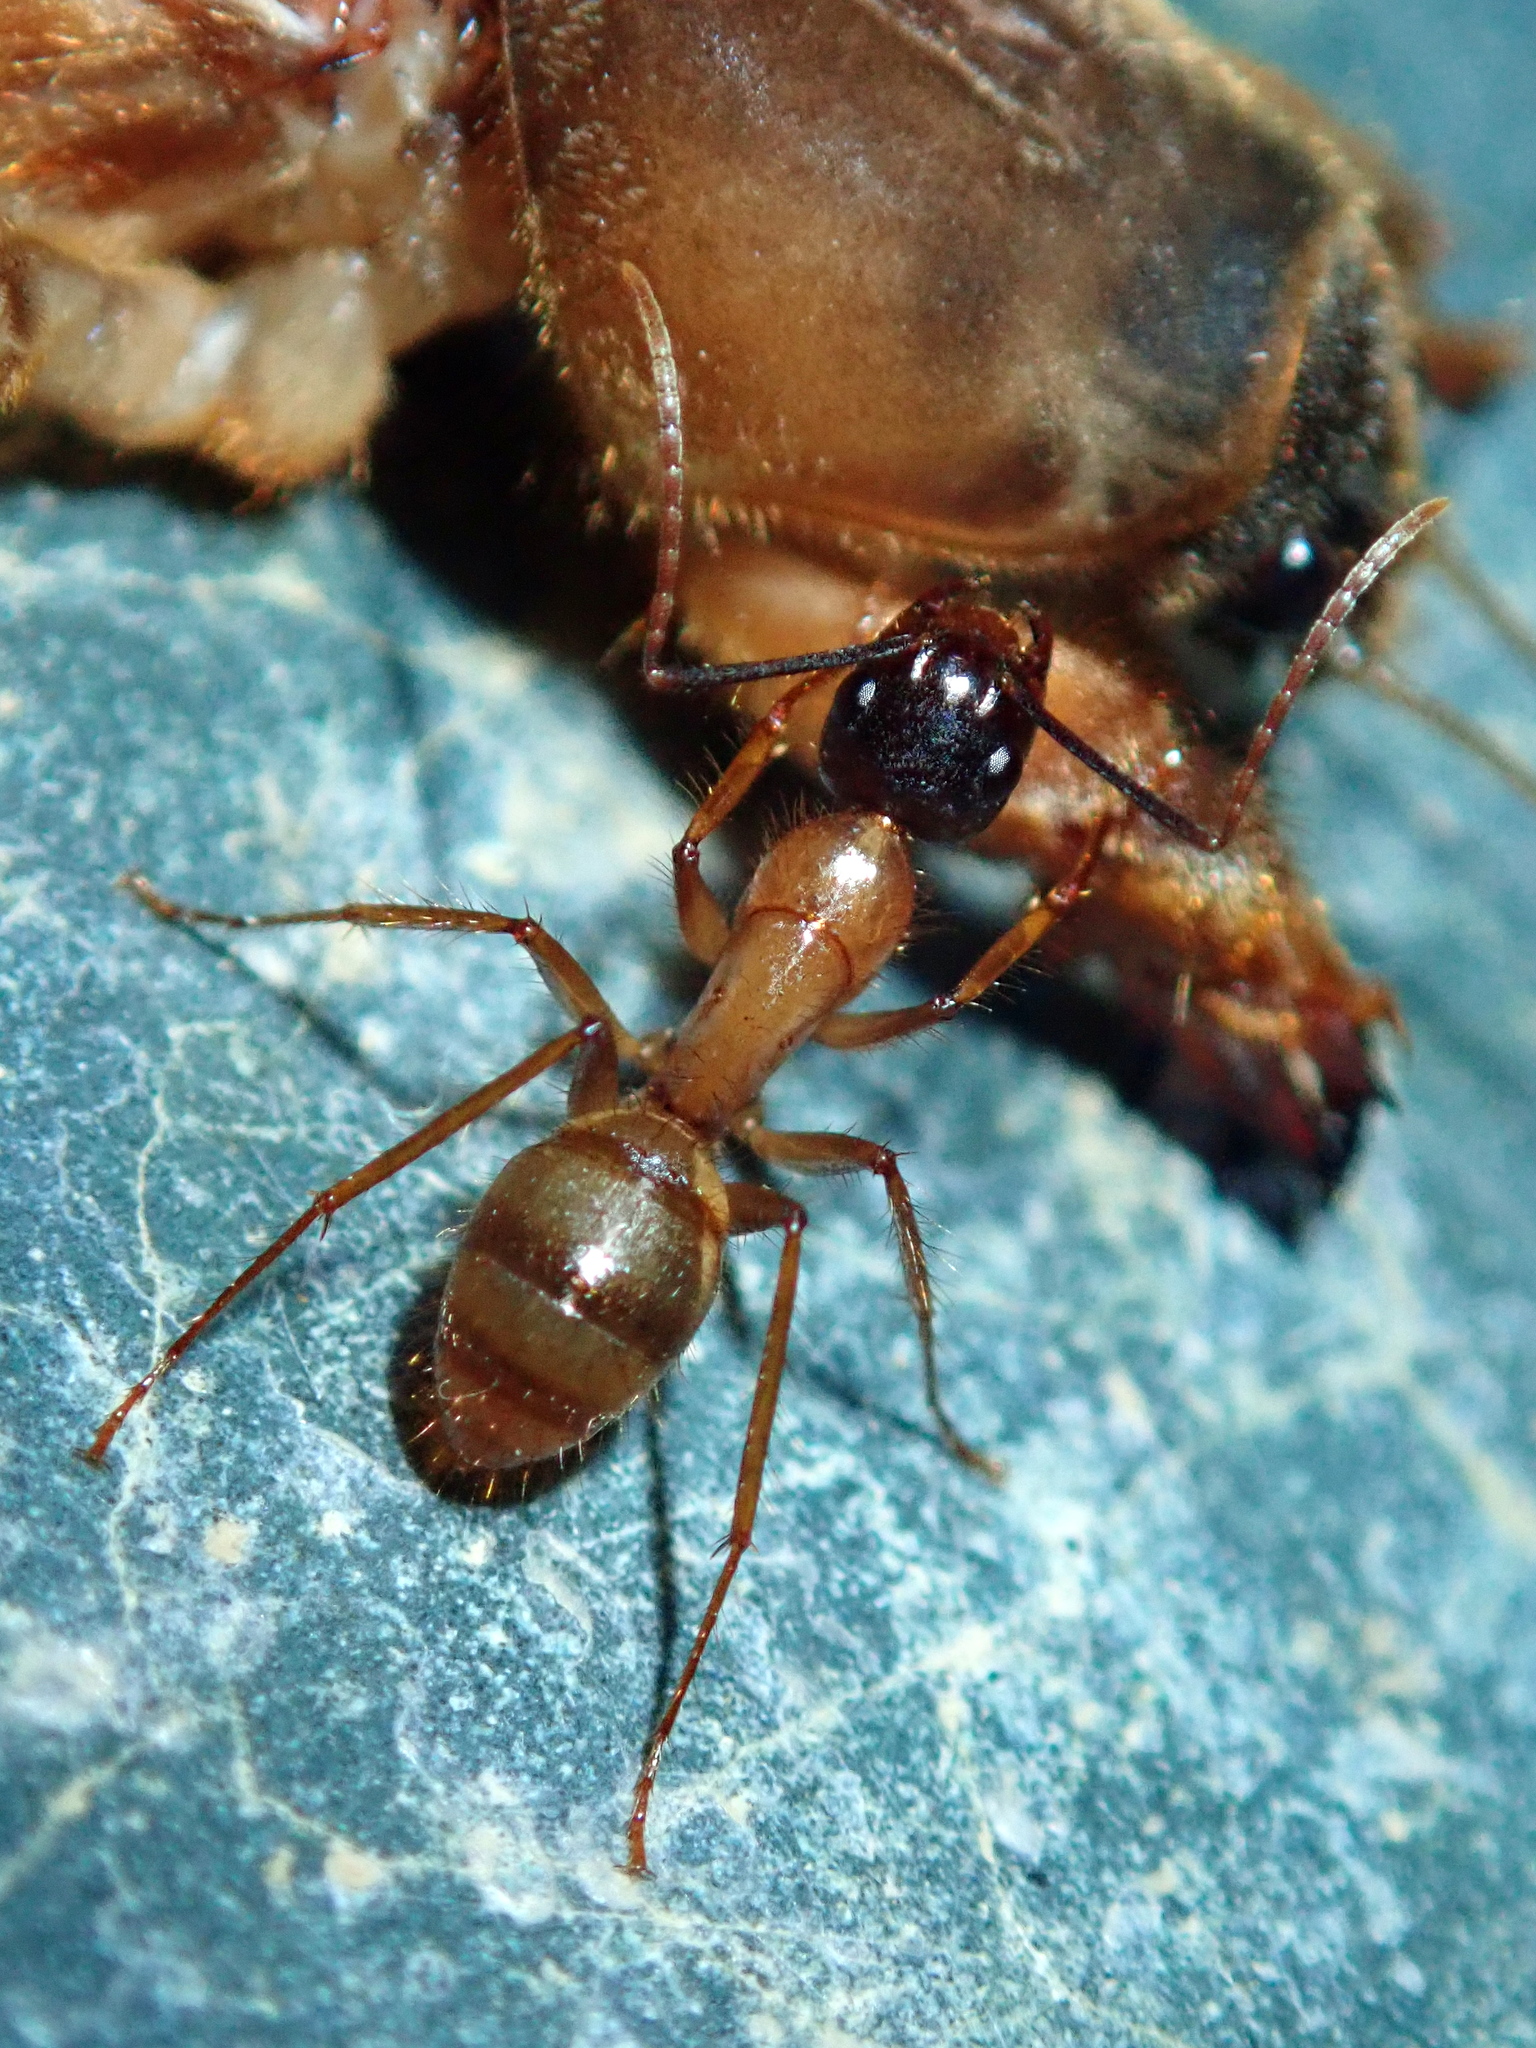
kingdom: Animalia
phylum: Arthropoda
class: Insecta
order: Hymenoptera
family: Formicidae
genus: Camponotus
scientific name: Camponotus atriceps
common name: Florida carpenter ant
